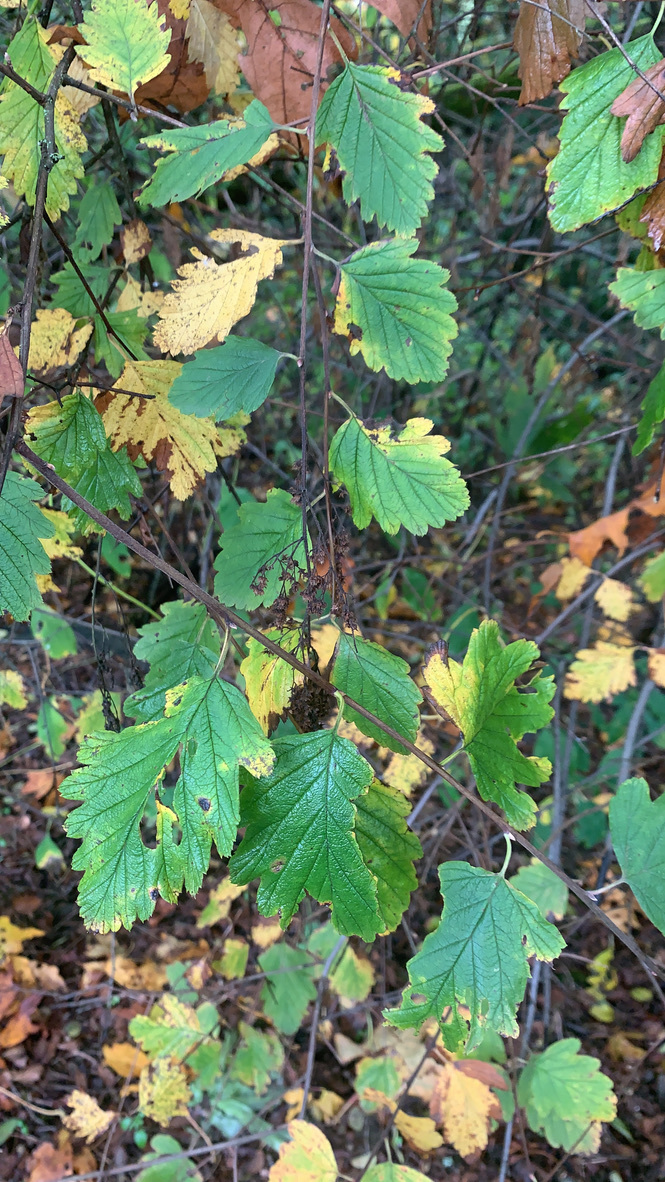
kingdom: Plantae
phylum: Tracheophyta
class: Magnoliopsida
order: Rosales
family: Rosaceae
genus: Holodiscus
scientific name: Holodiscus discolor
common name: Oceanspray
